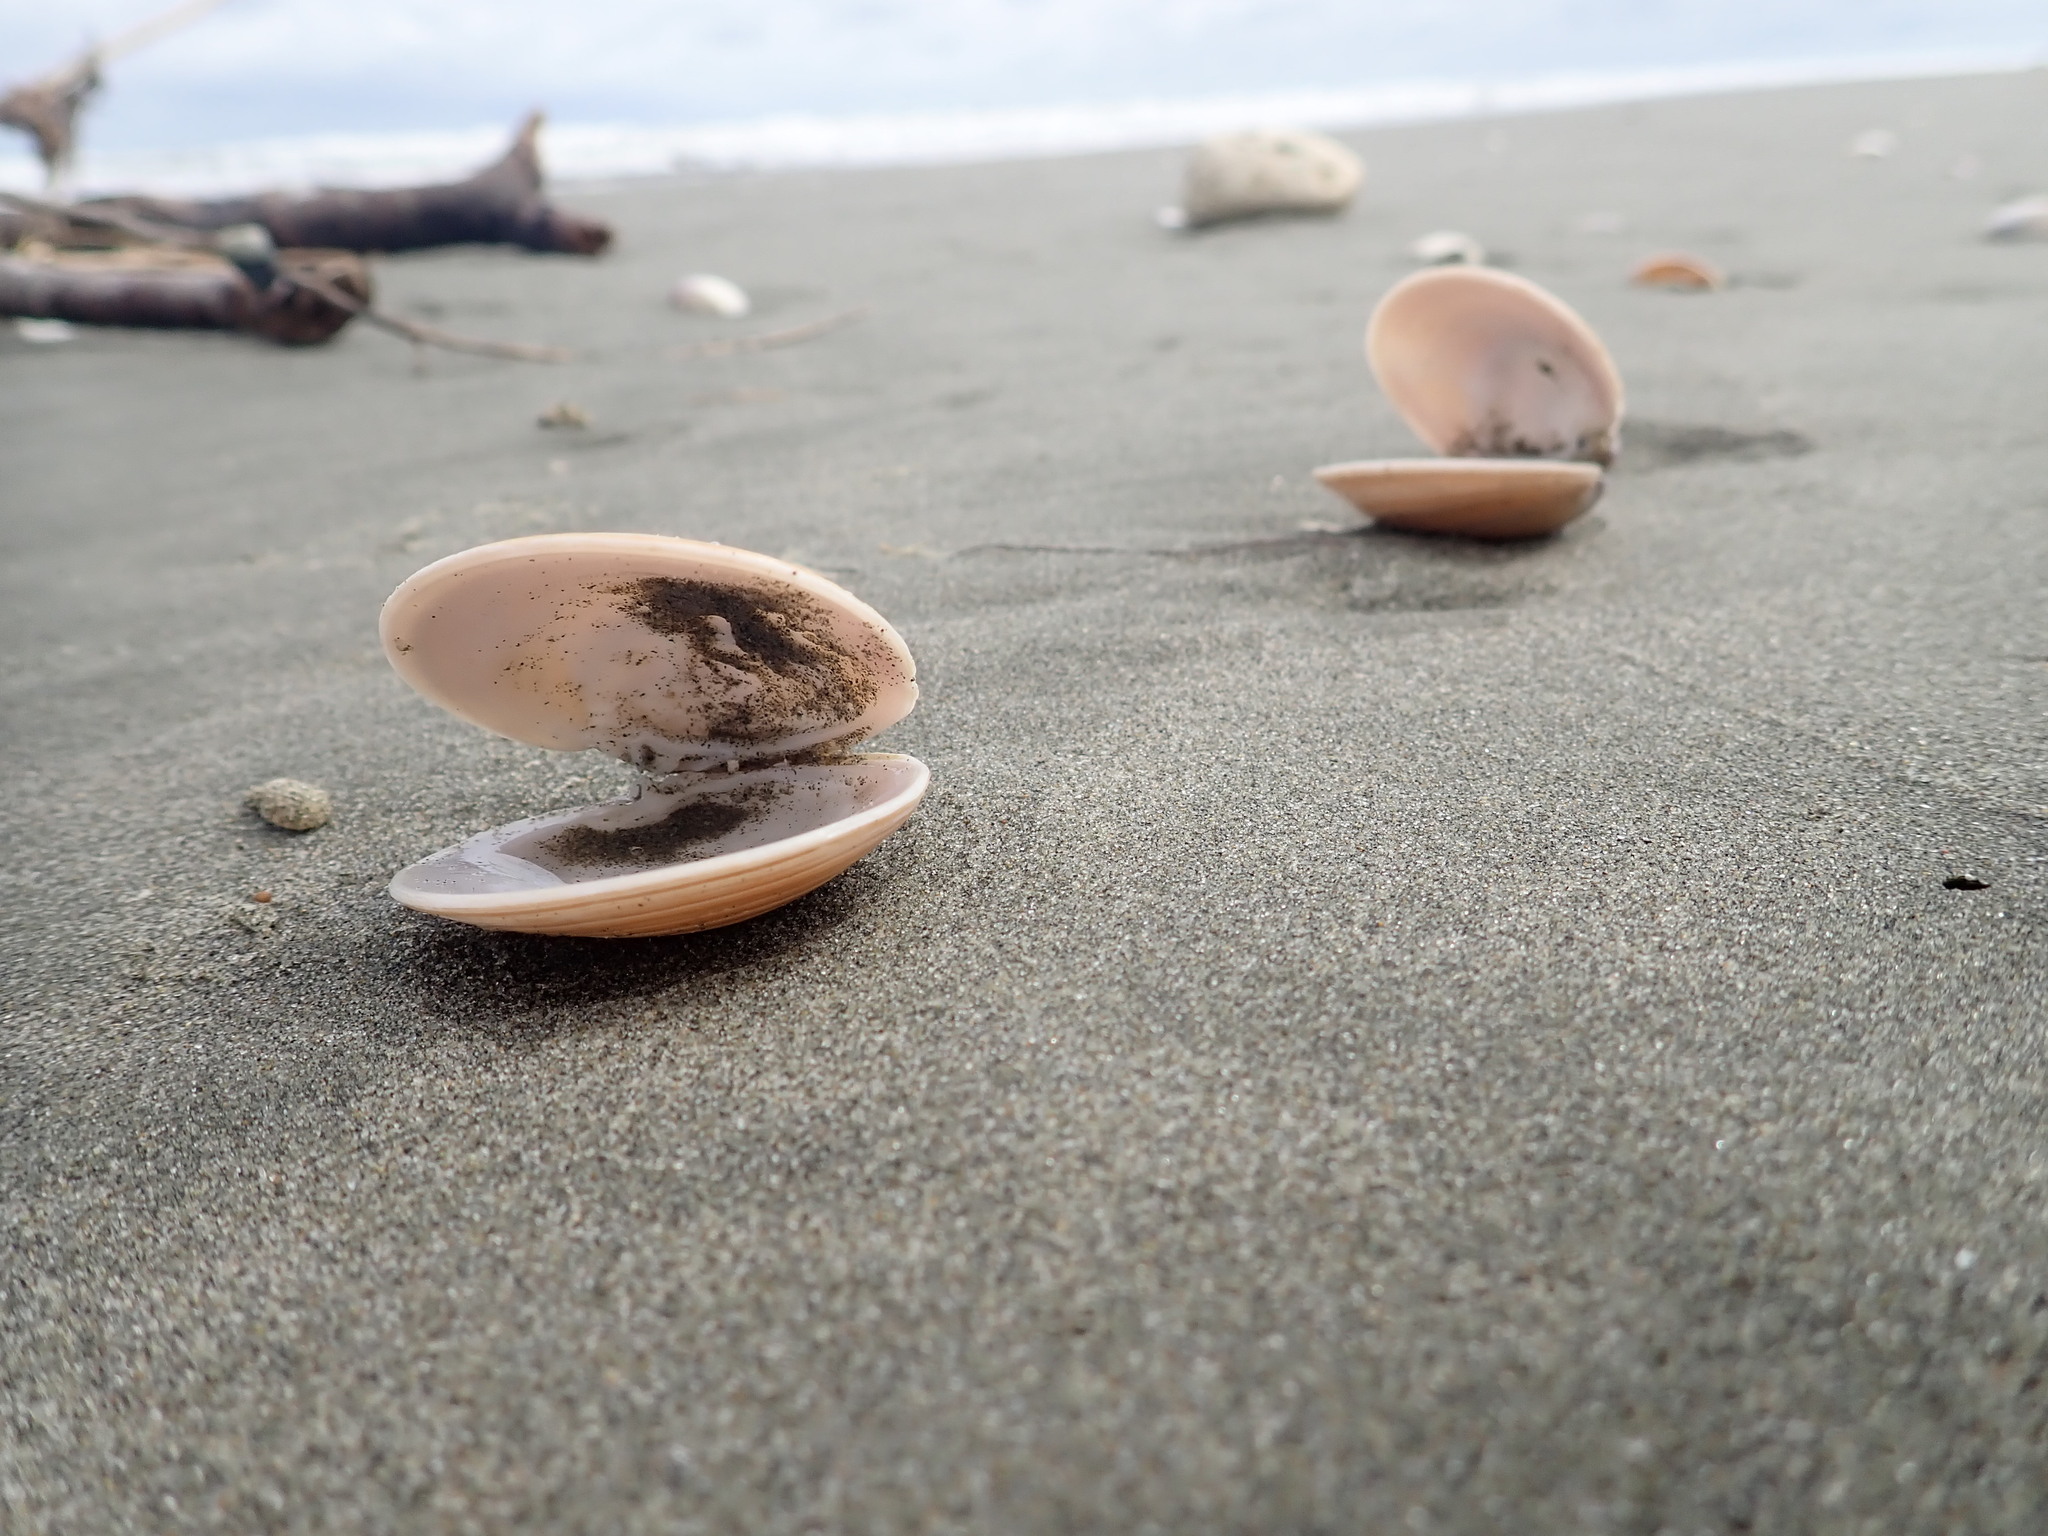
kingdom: Animalia
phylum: Mollusca
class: Bivalvia
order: Venerida
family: Veneridae
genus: Dosinia
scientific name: Dosinia anus
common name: Old-woman dosinia
